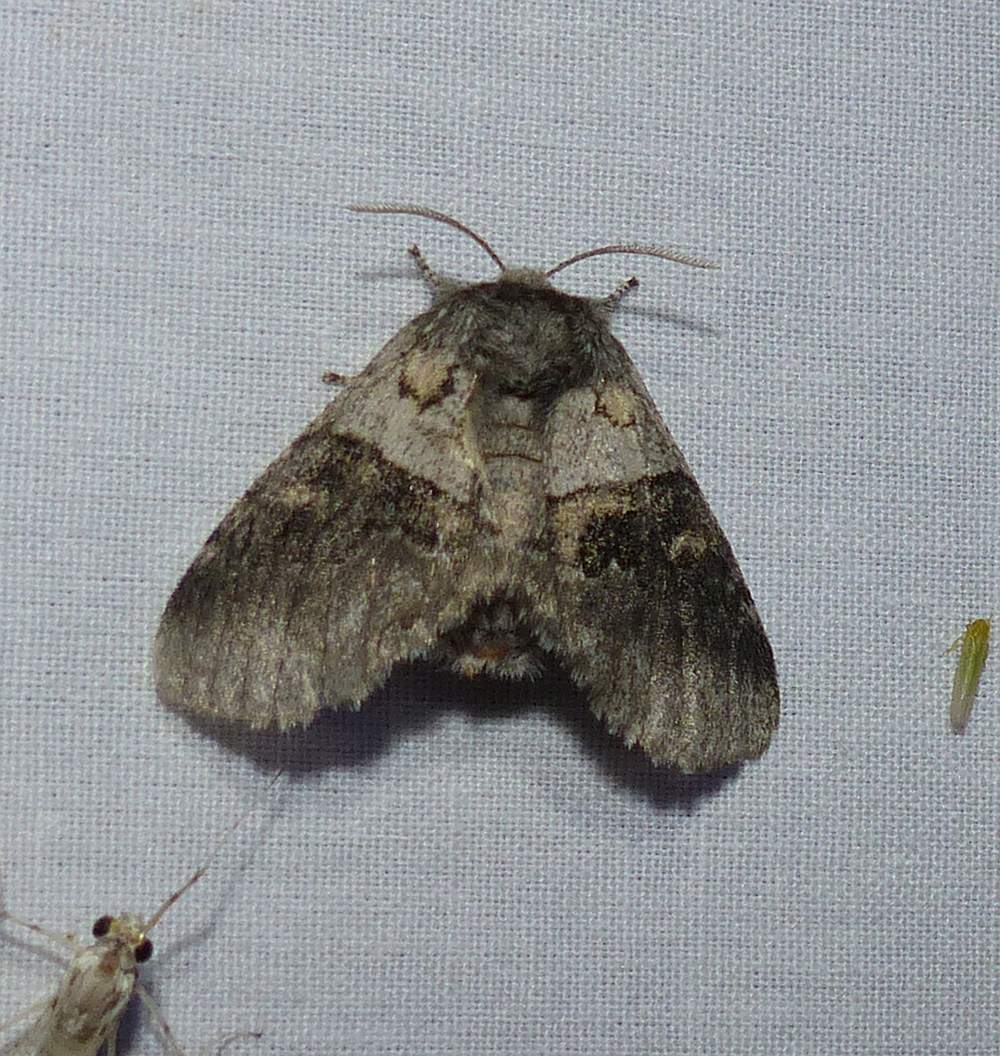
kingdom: Animalia
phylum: Arthropoda
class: Insecta
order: Lepidoptera
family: Notodontidae
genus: Gluphisia
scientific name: Gluphisia septentrionis
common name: Common gluphisia
